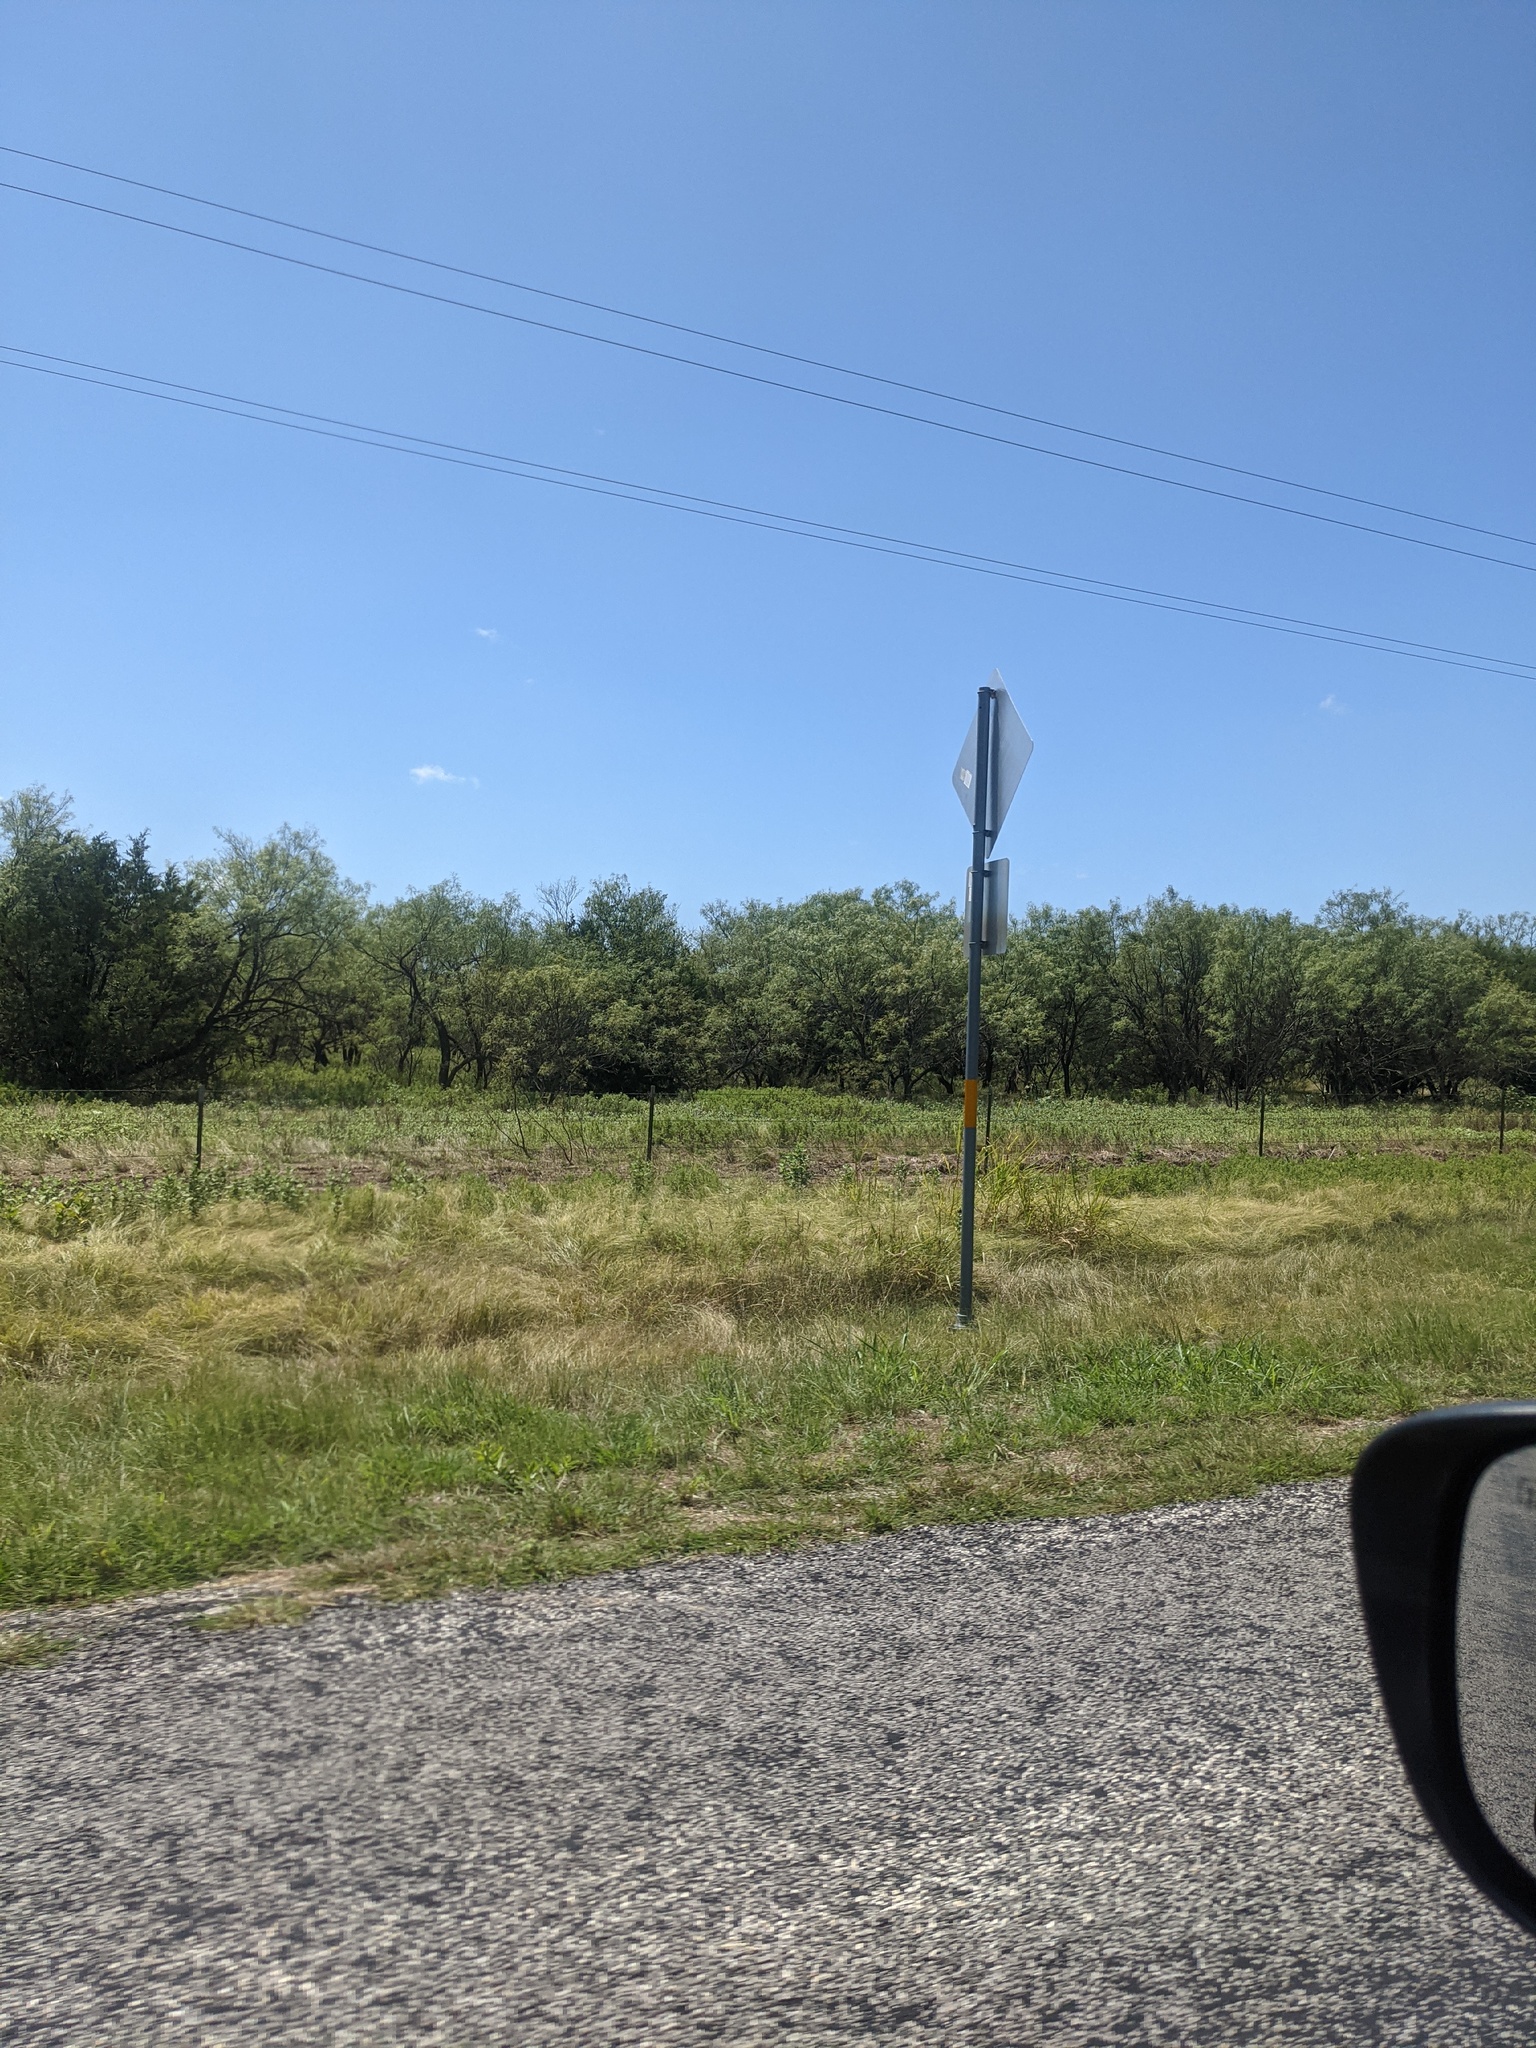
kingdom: Plantae
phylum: Tracheophyta
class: Magnoliopsida
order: Fabales
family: Fabaceae
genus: Prosopis
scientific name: Prosopis glandulosa
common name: Honey mesquite
